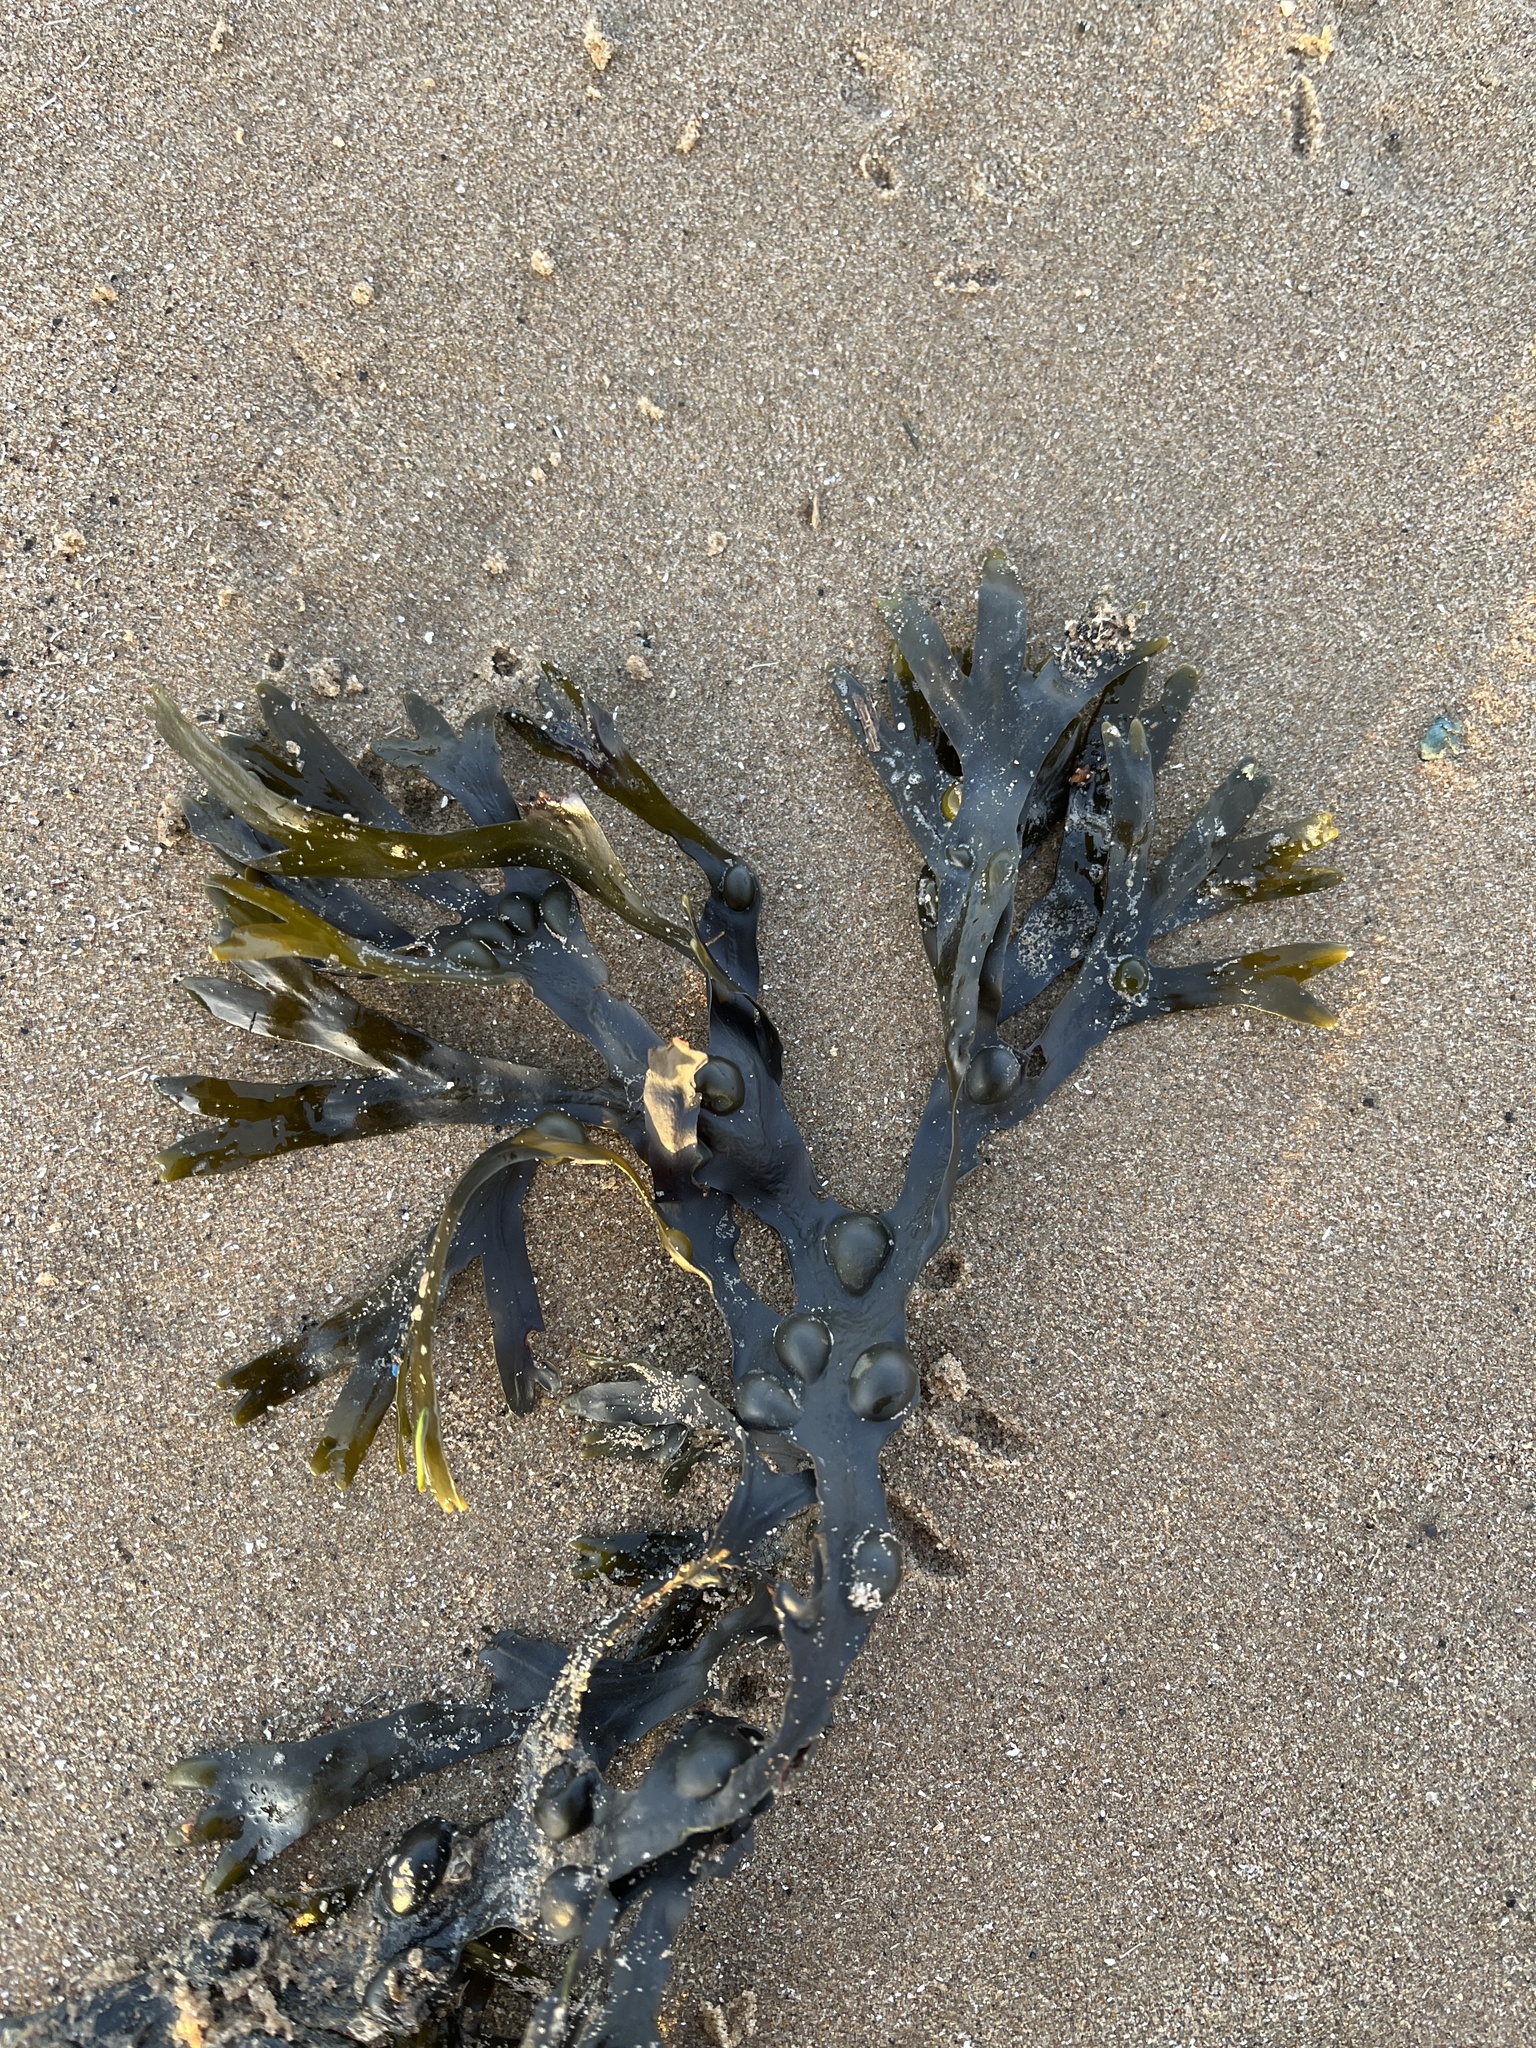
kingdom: Chromista
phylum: Ochrophyta
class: Phaeophyceae
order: Fucales
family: Fucaceae
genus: Fucus
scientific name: Fucus vesiculosus
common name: Bladder wrack
